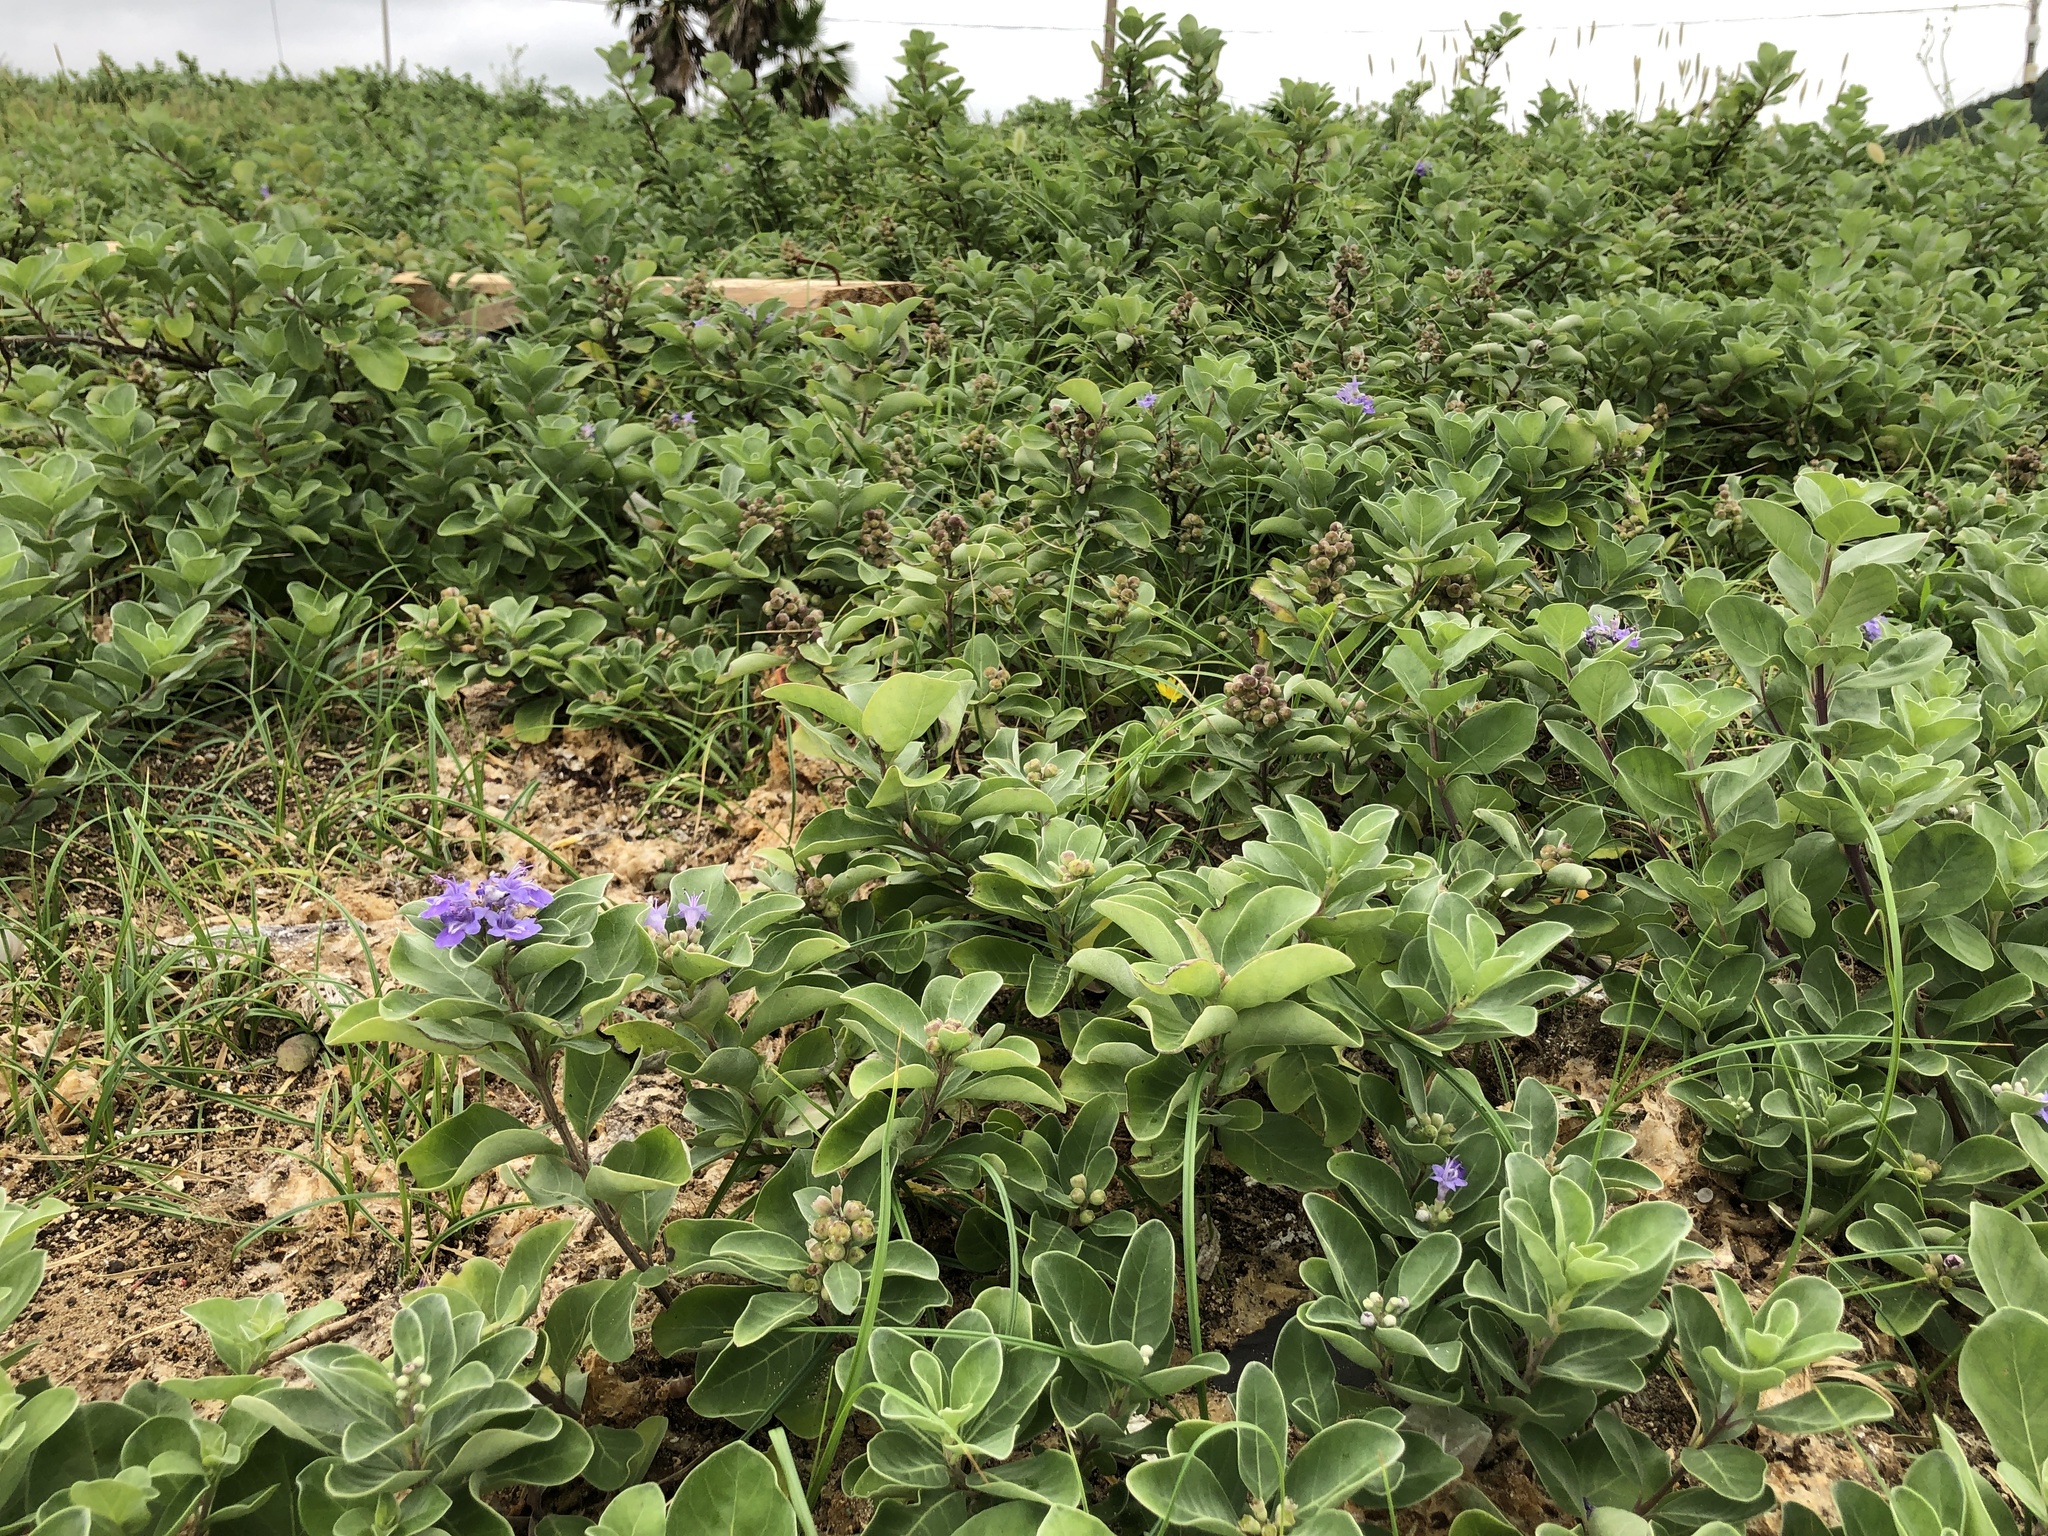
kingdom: Plantae
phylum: Tracheophyta
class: Magnoliopsida
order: Lamiales
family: Lamiaceae
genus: Vitex
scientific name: Vitex rotundifolia
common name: Beach vitex
